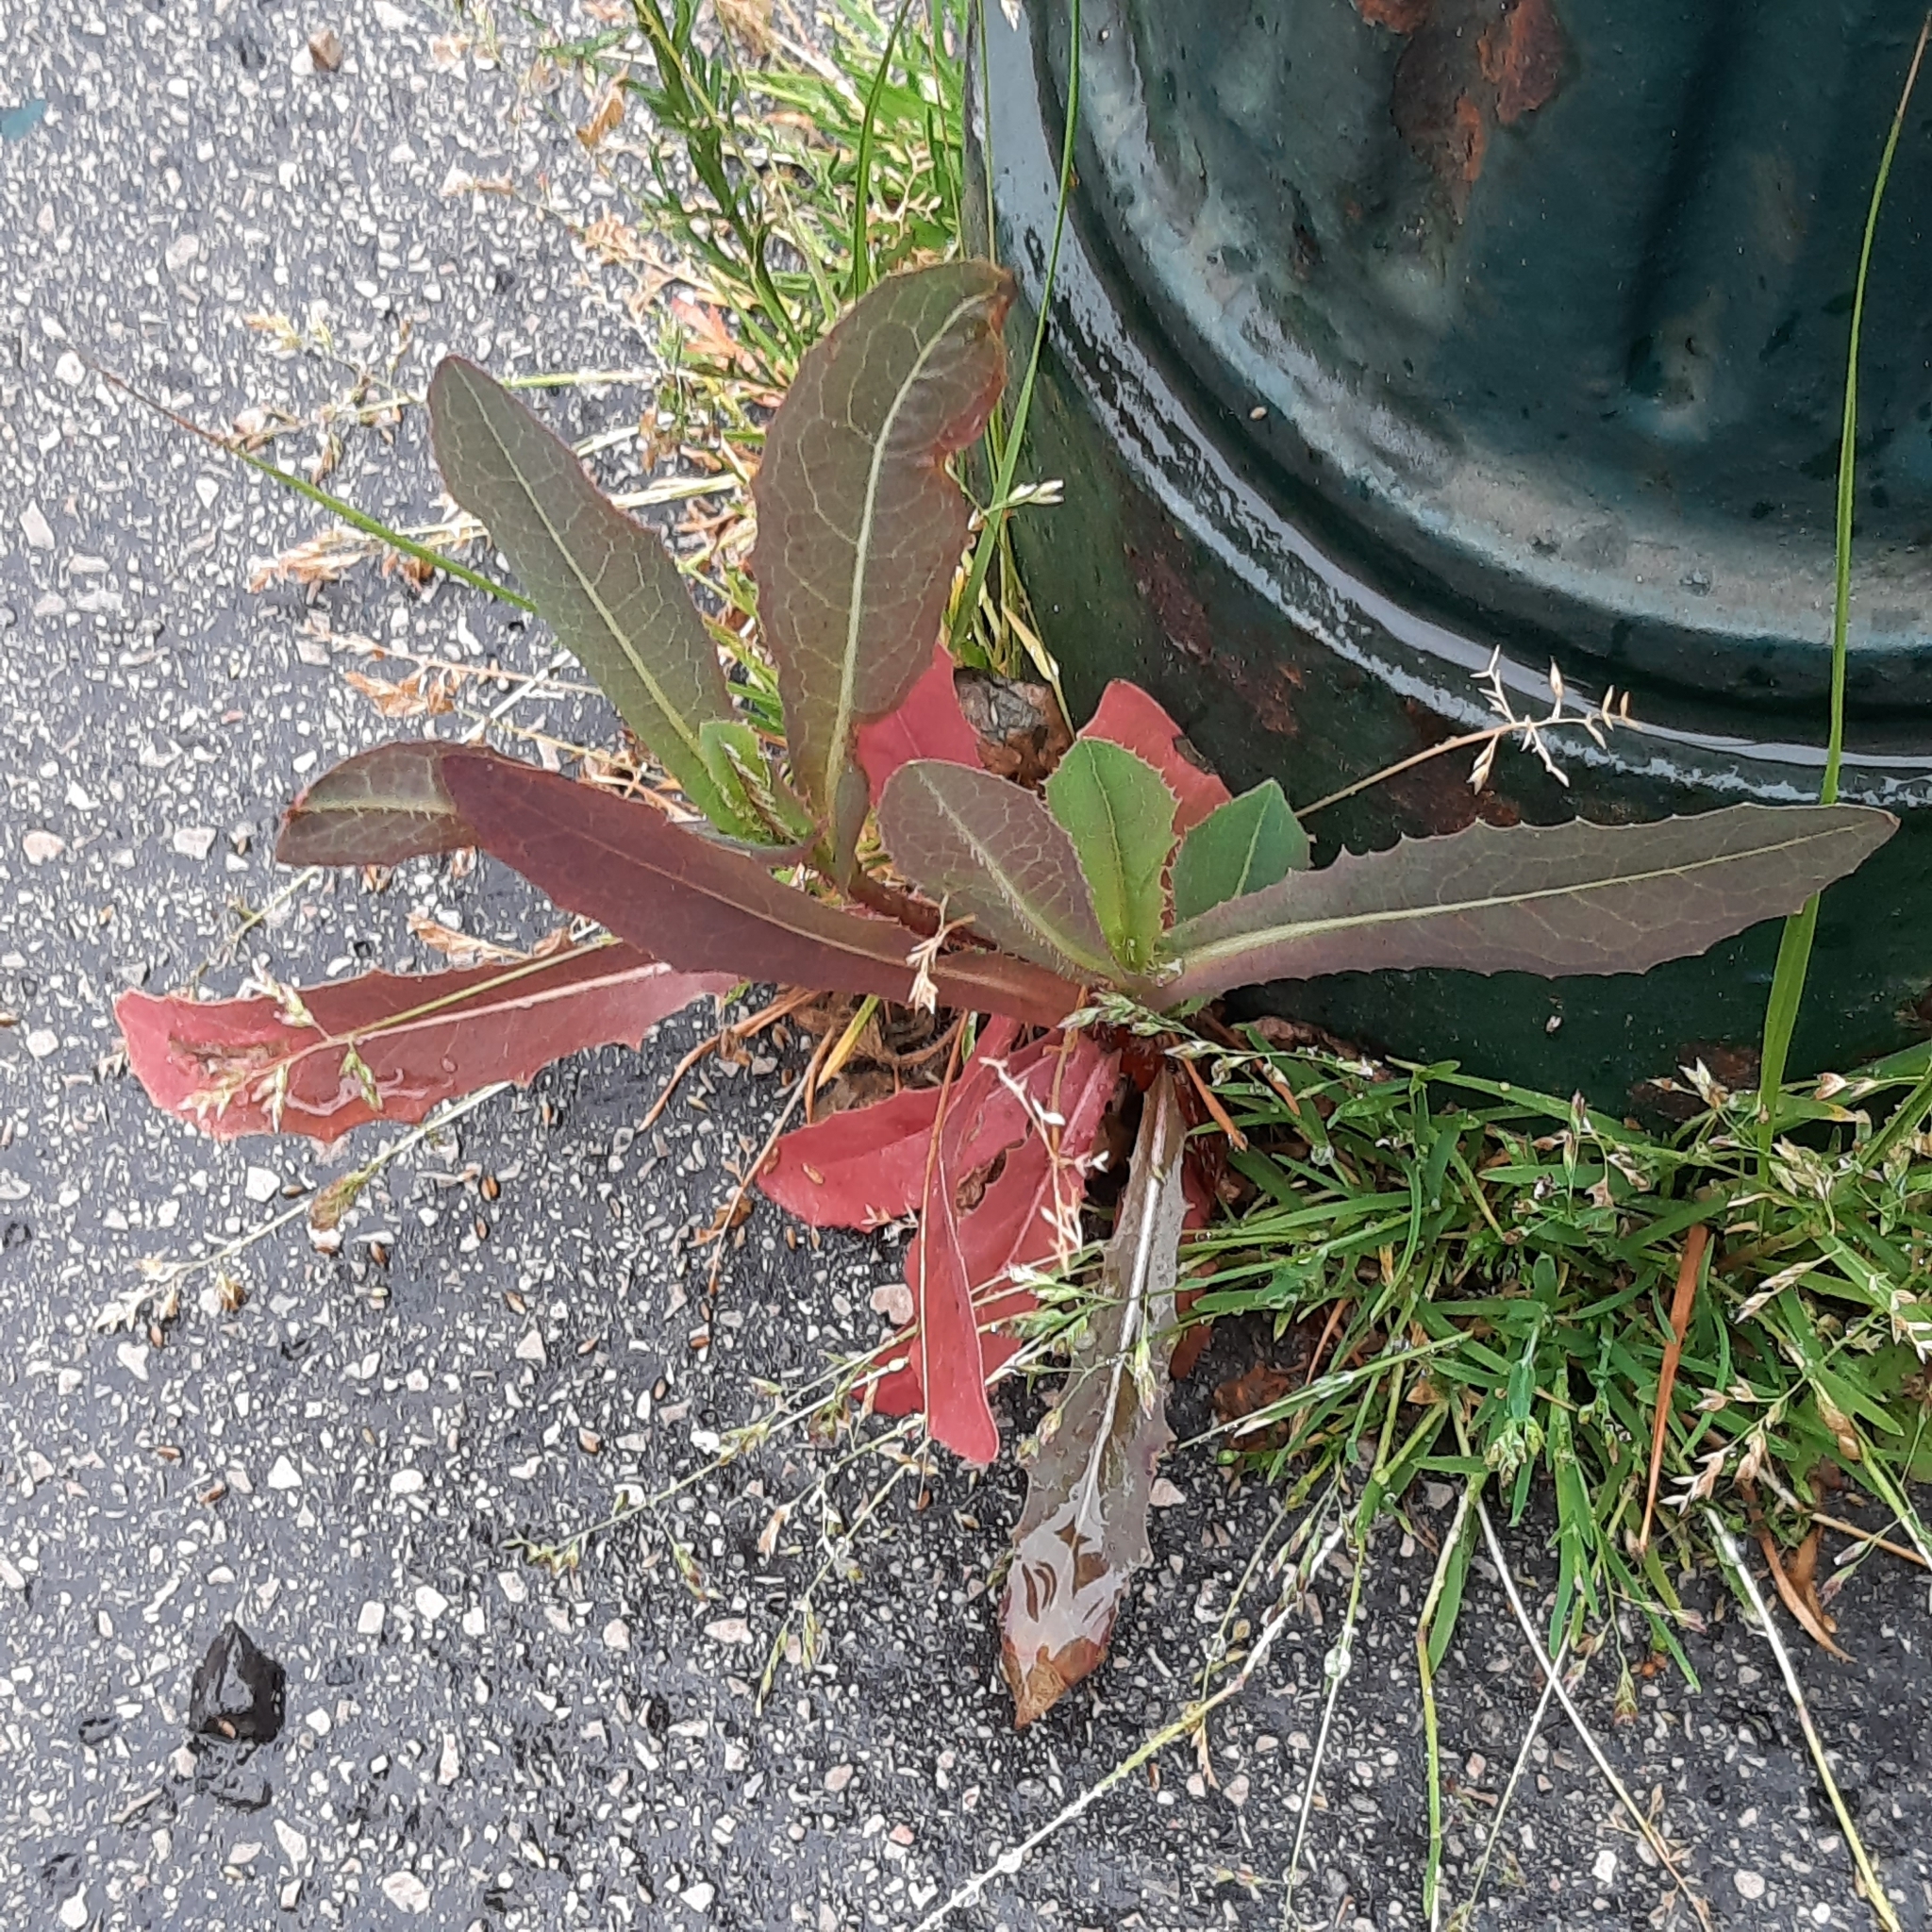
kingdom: Plantae
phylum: Tracheophyta
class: Magnoliopsida
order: Asterales
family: Asteraceae
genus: Lactuca
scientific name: Lactuca serriola
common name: Prickly lettuce
